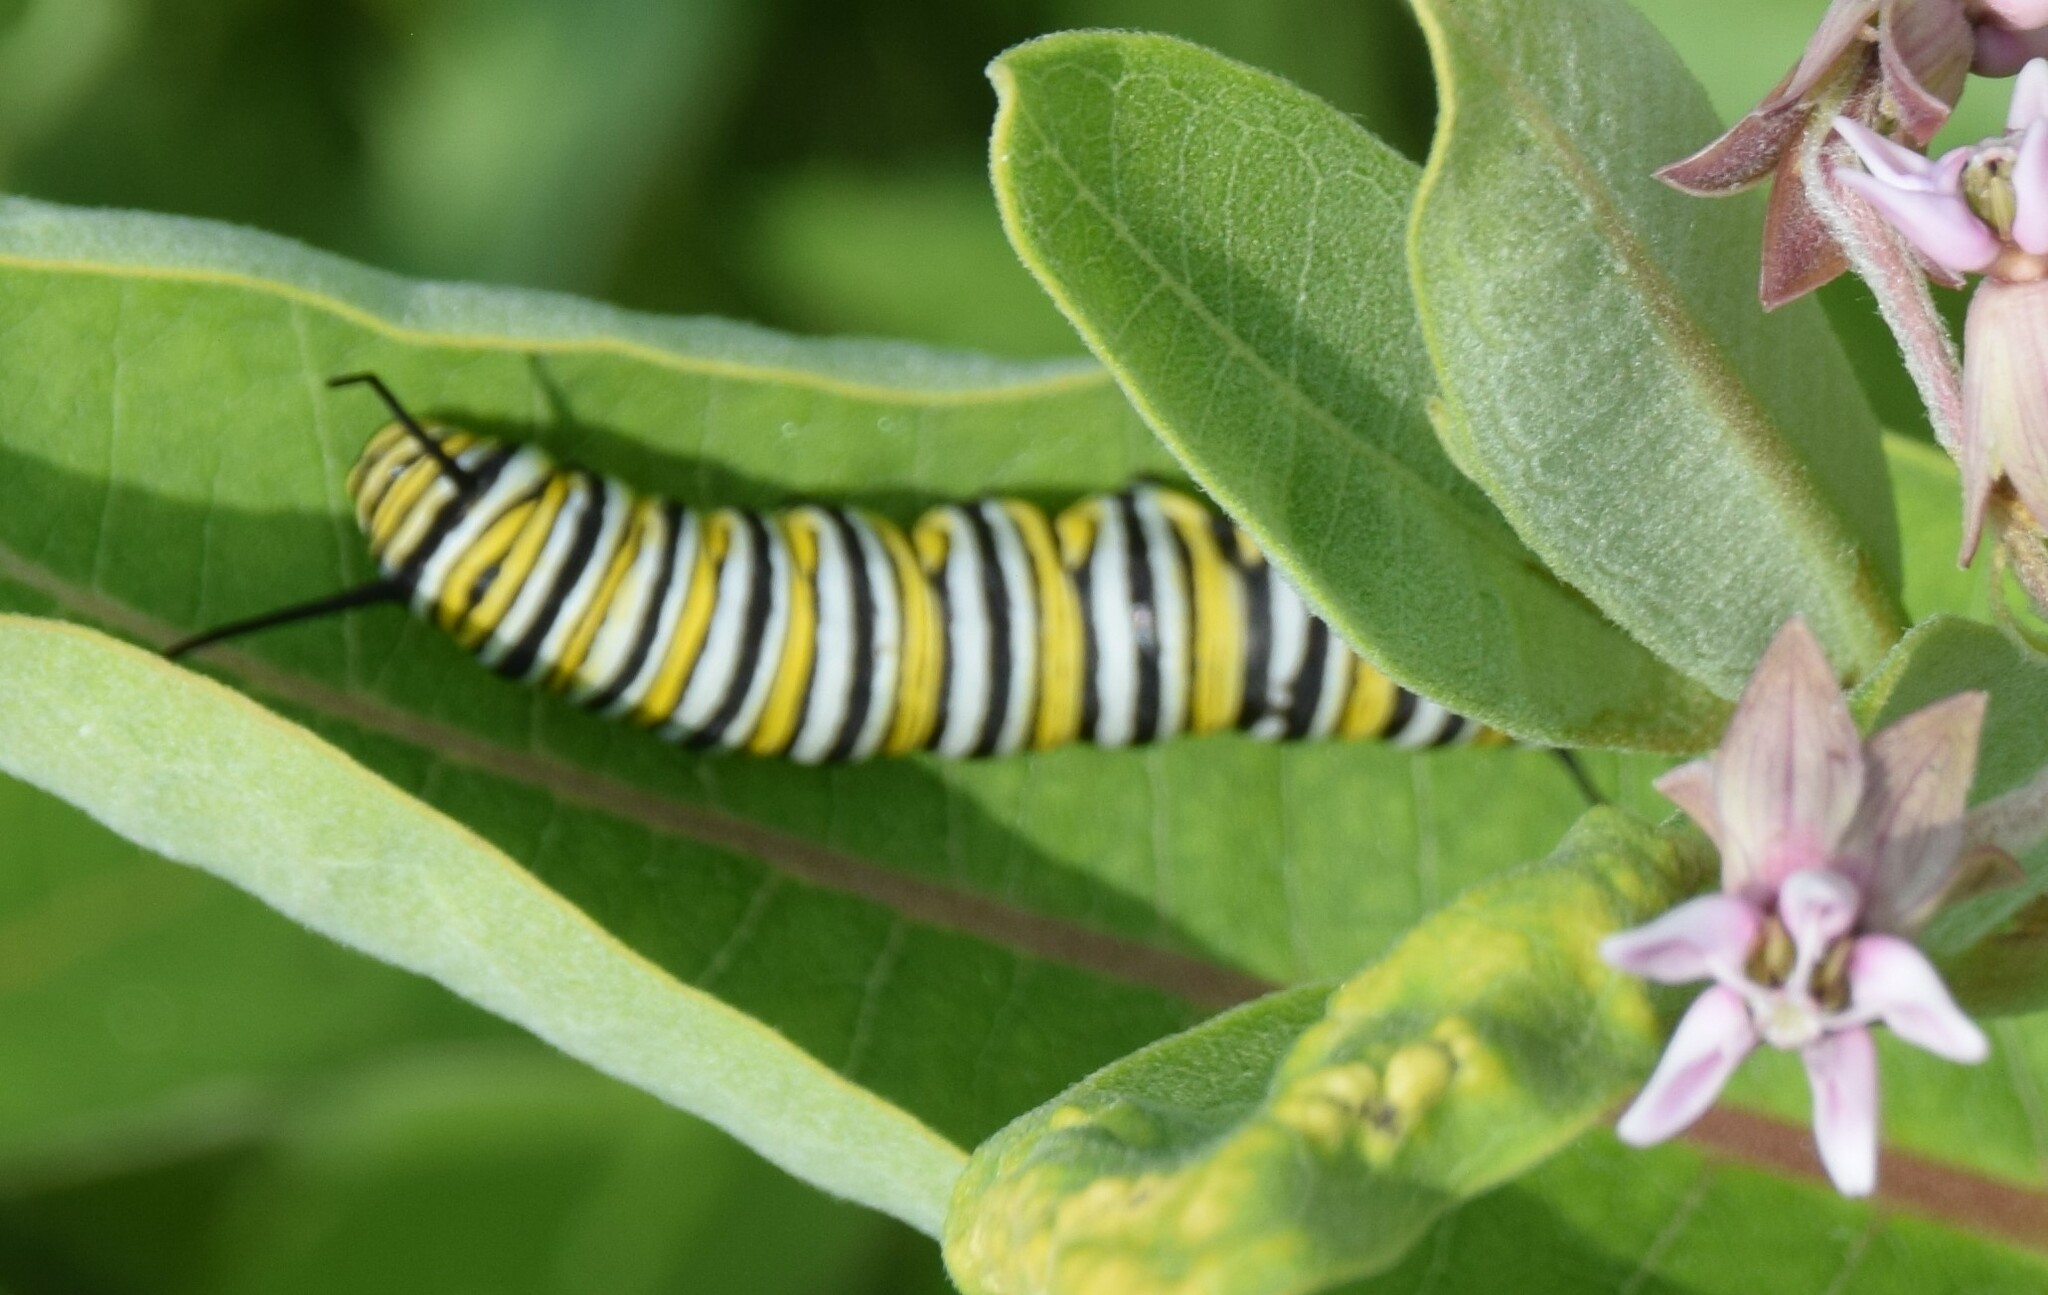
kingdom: Animalia
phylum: Arthropoda
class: Insecta
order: Lepidoptera
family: Nymphalidae
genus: Danaus
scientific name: Danaus plexippus
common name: Monarch
